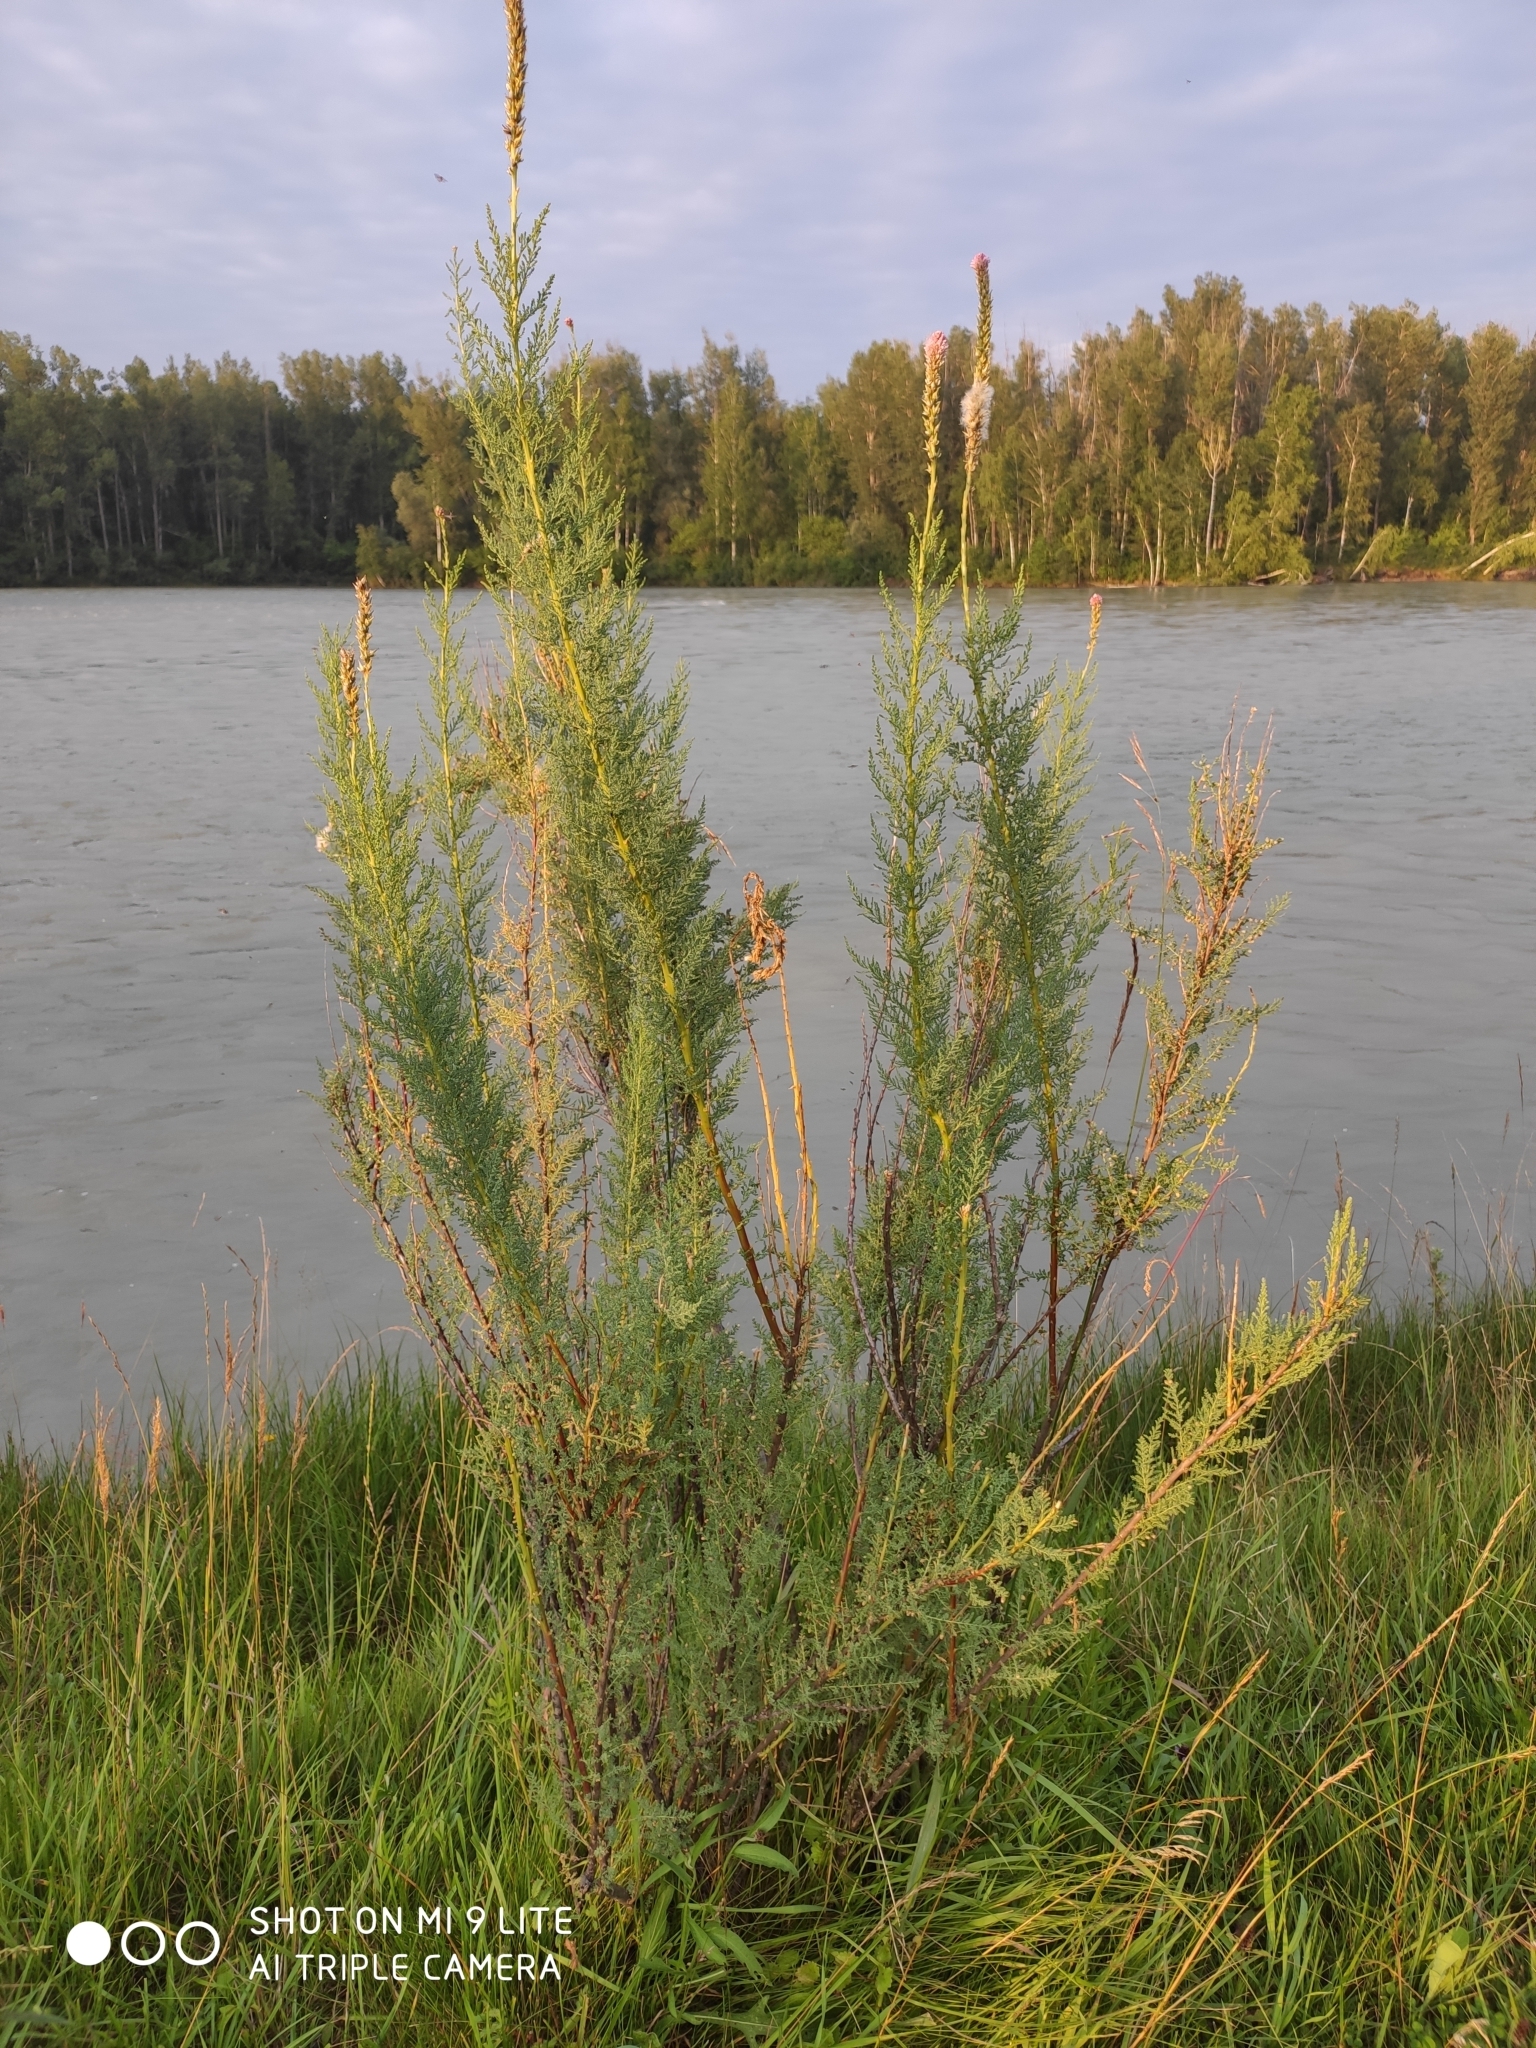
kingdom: Plantae
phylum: Tracheophyta
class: Magnoliopsida
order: Caryophyllales
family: Tamaricaceae
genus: Myricaria
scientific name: Myricaria longifolia
